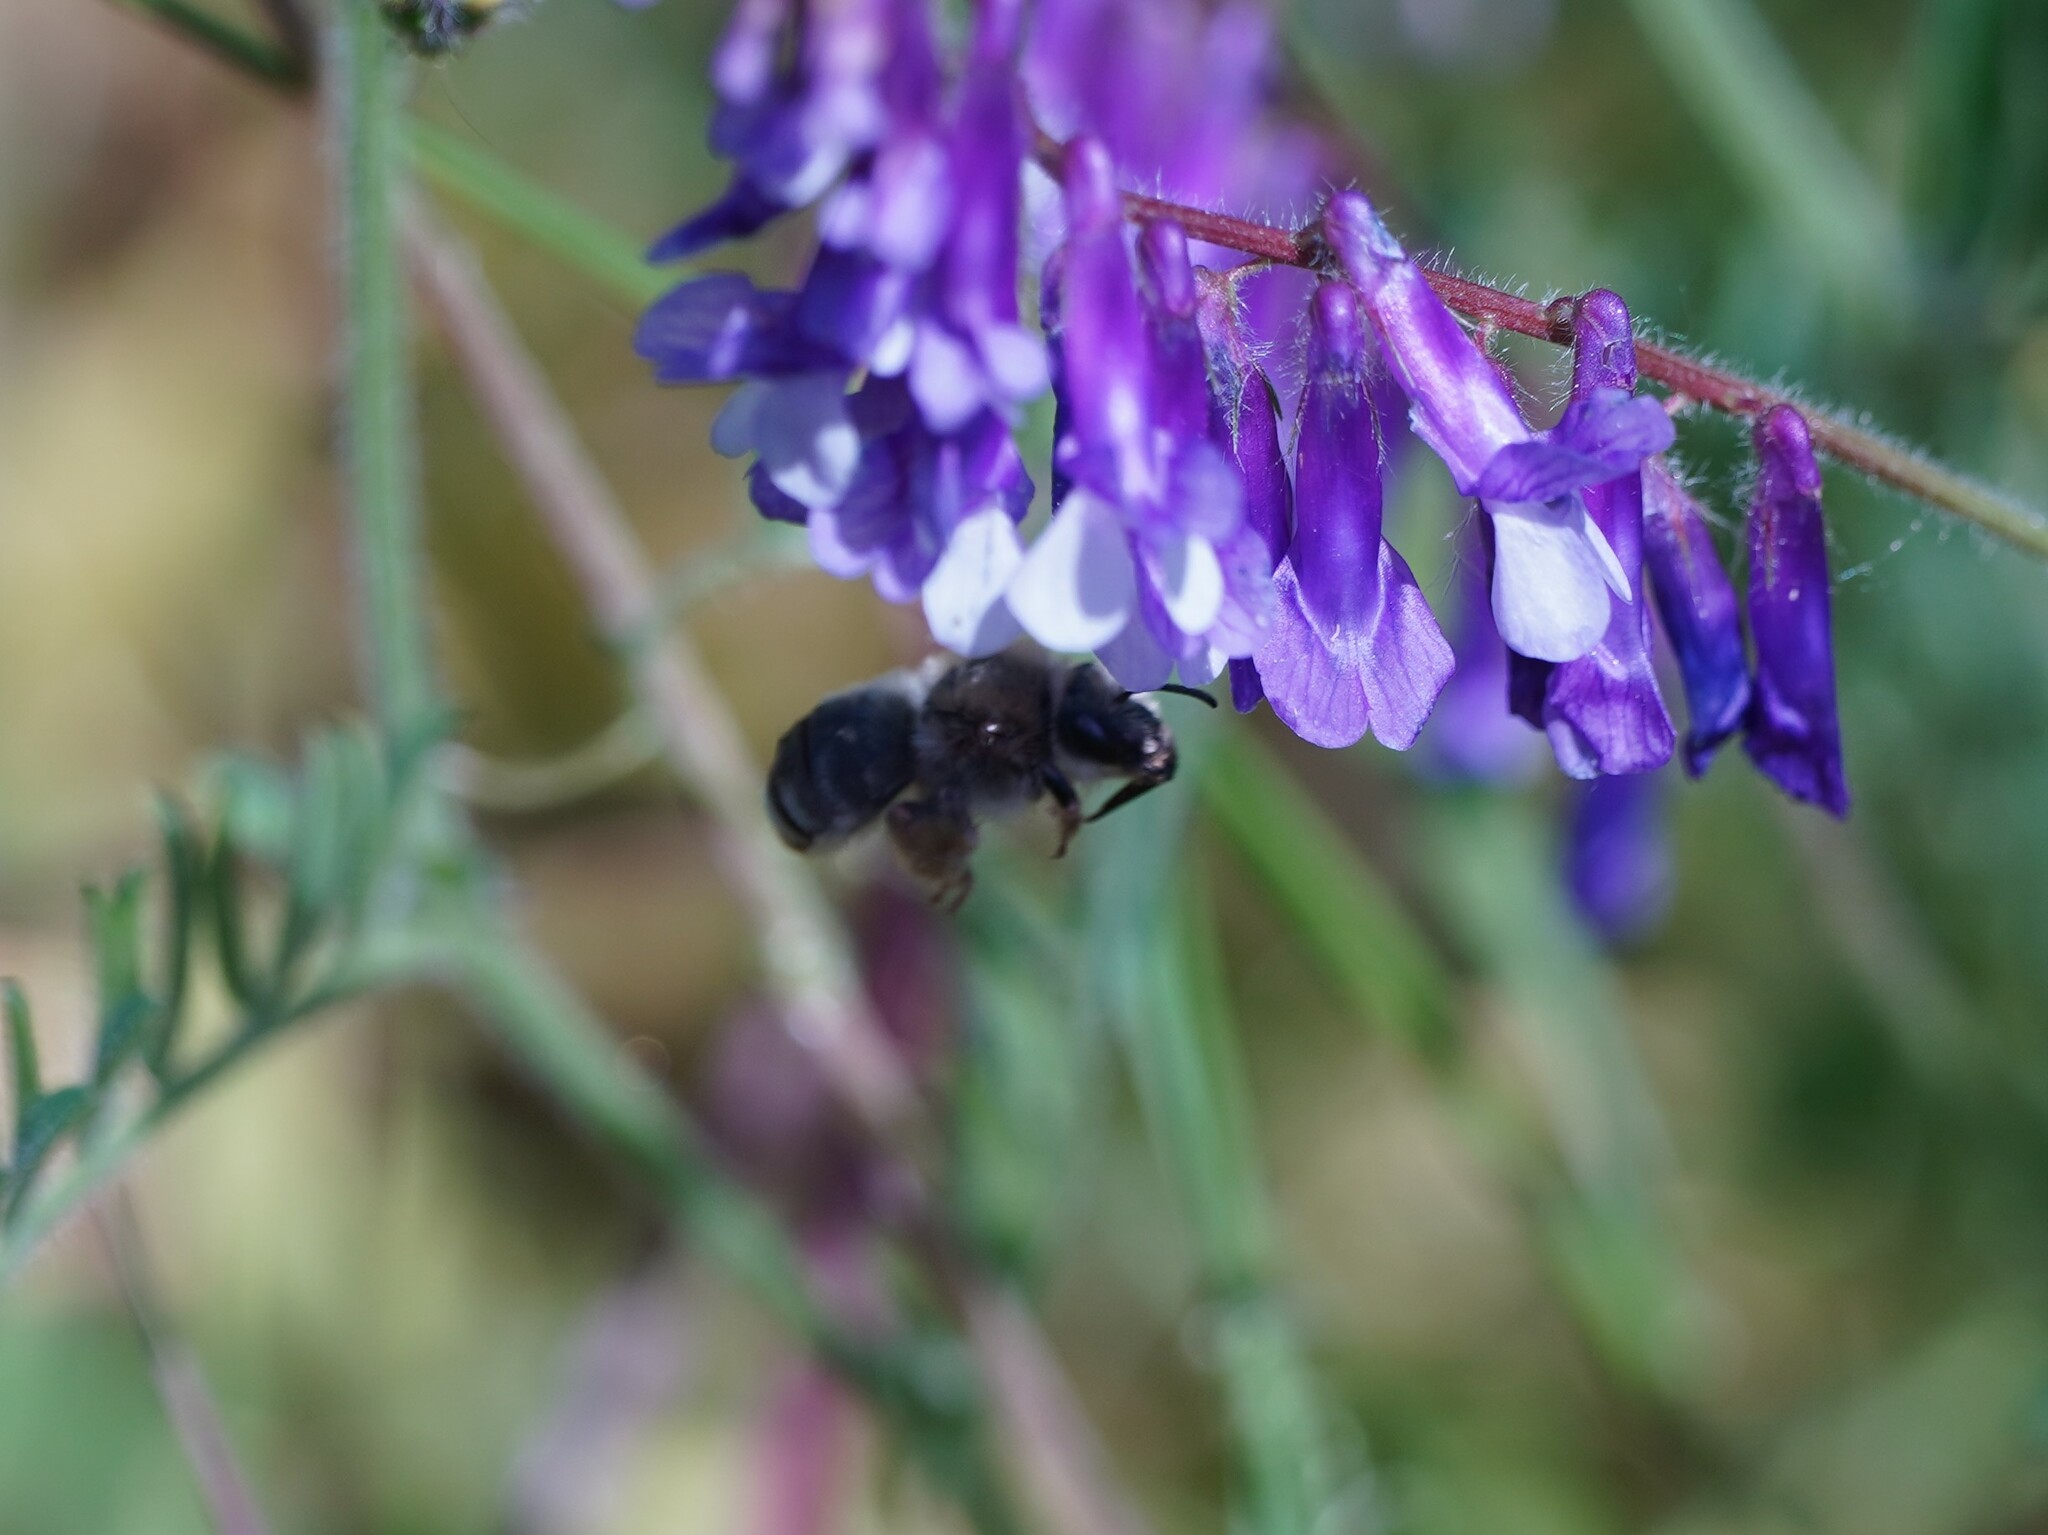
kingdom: Animalia
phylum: Arthropoda
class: Insecta
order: Hymenoptera
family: Apidae
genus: Eucera
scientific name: Eucera
